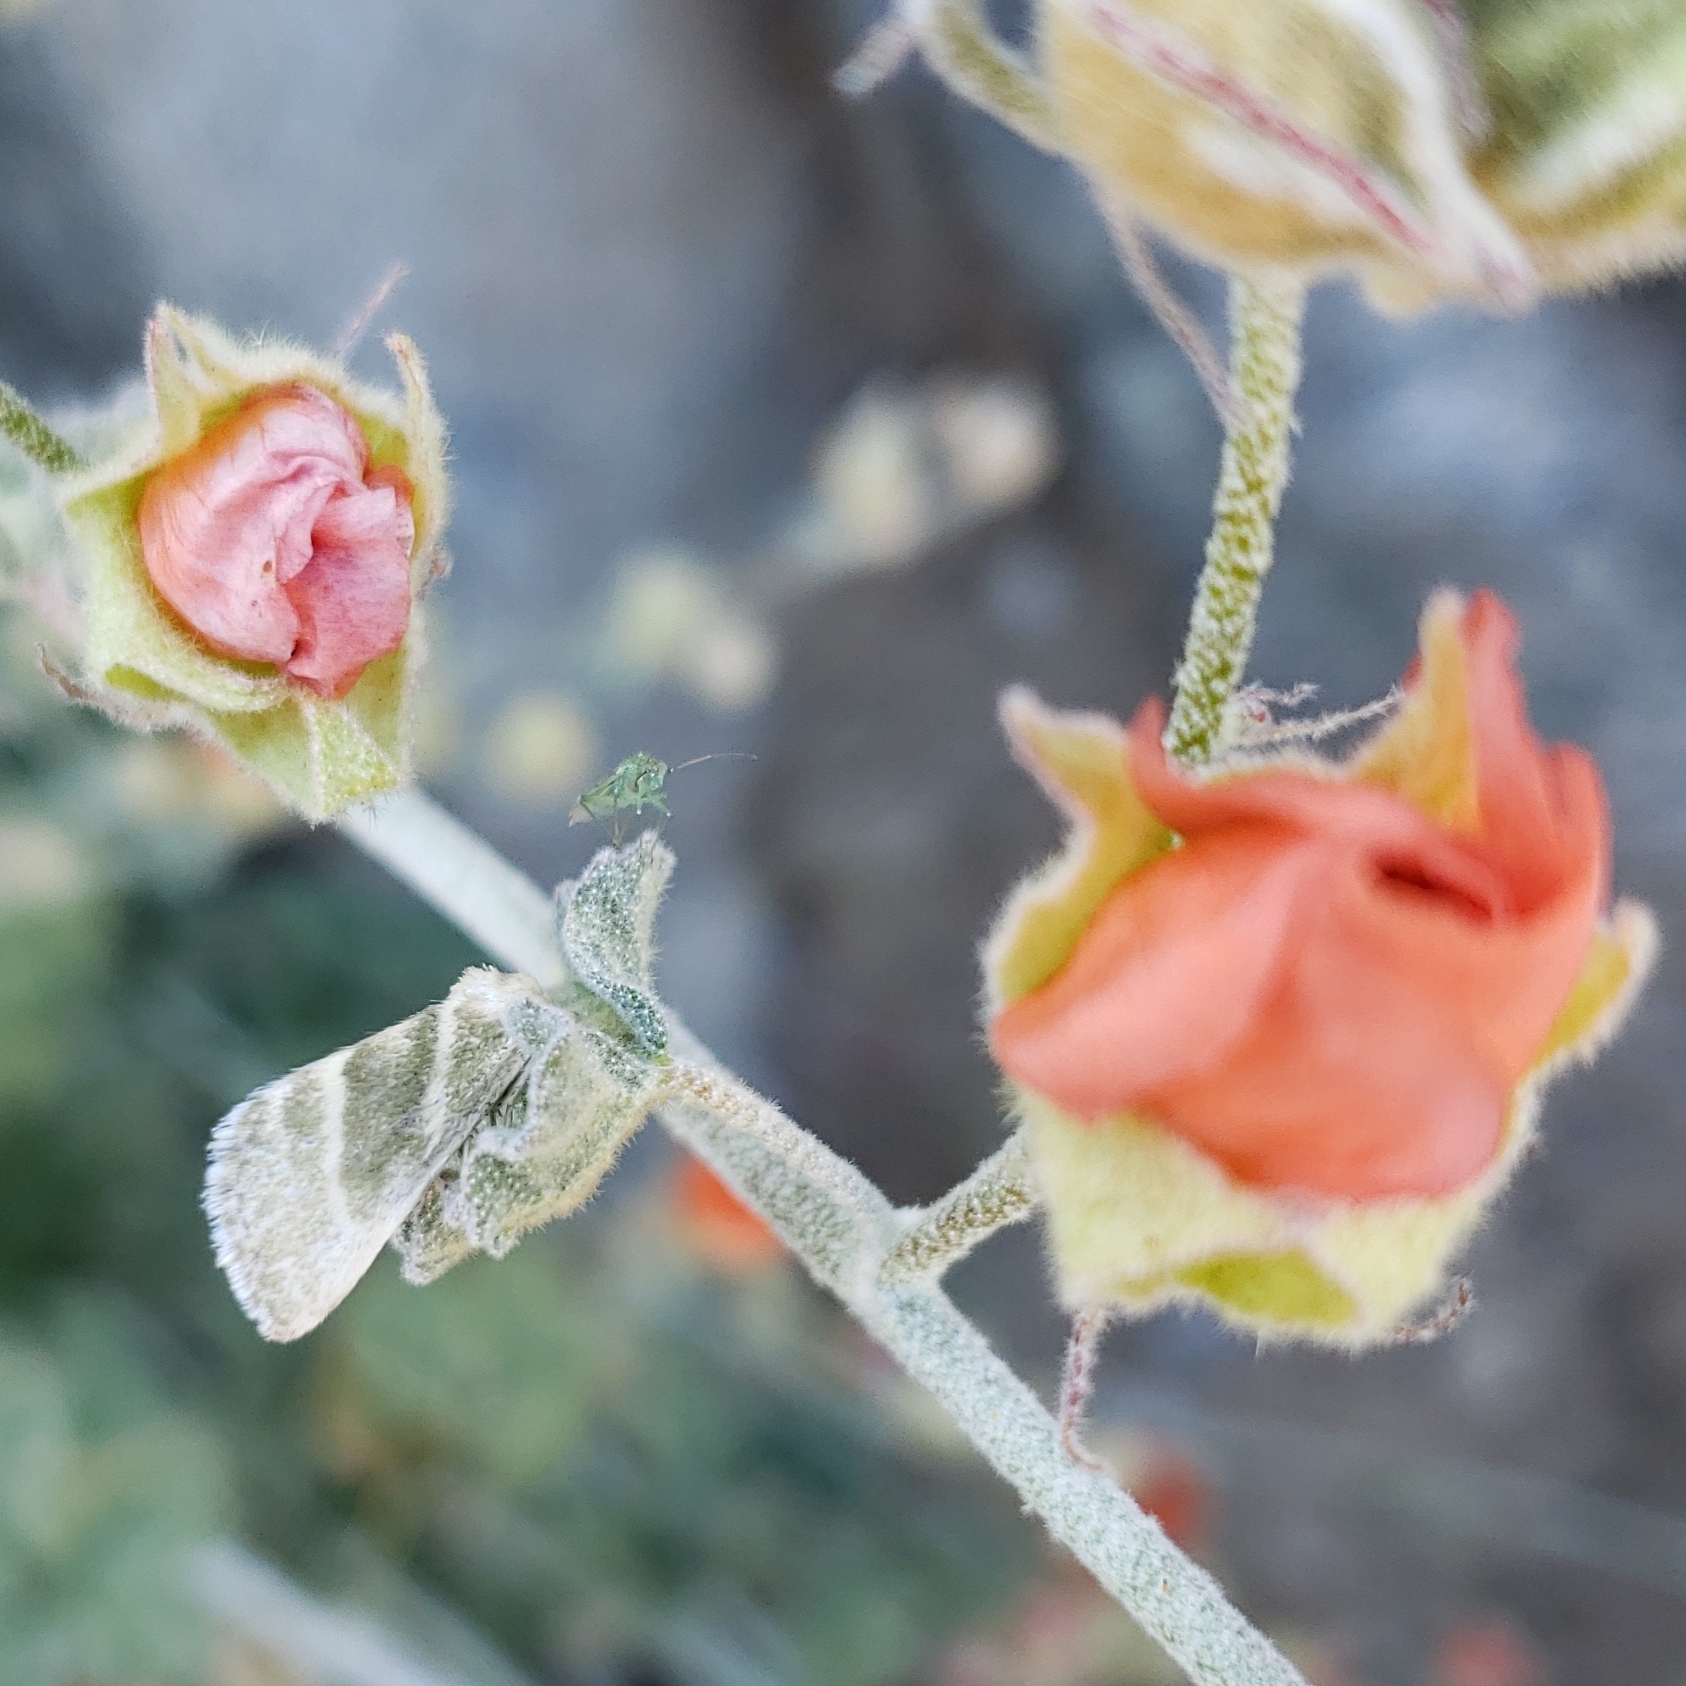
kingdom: Animalia
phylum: Arthropoda
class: Insecta
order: Lepidoptera
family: Noctuidae
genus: Azenia
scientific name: Azenia virida
